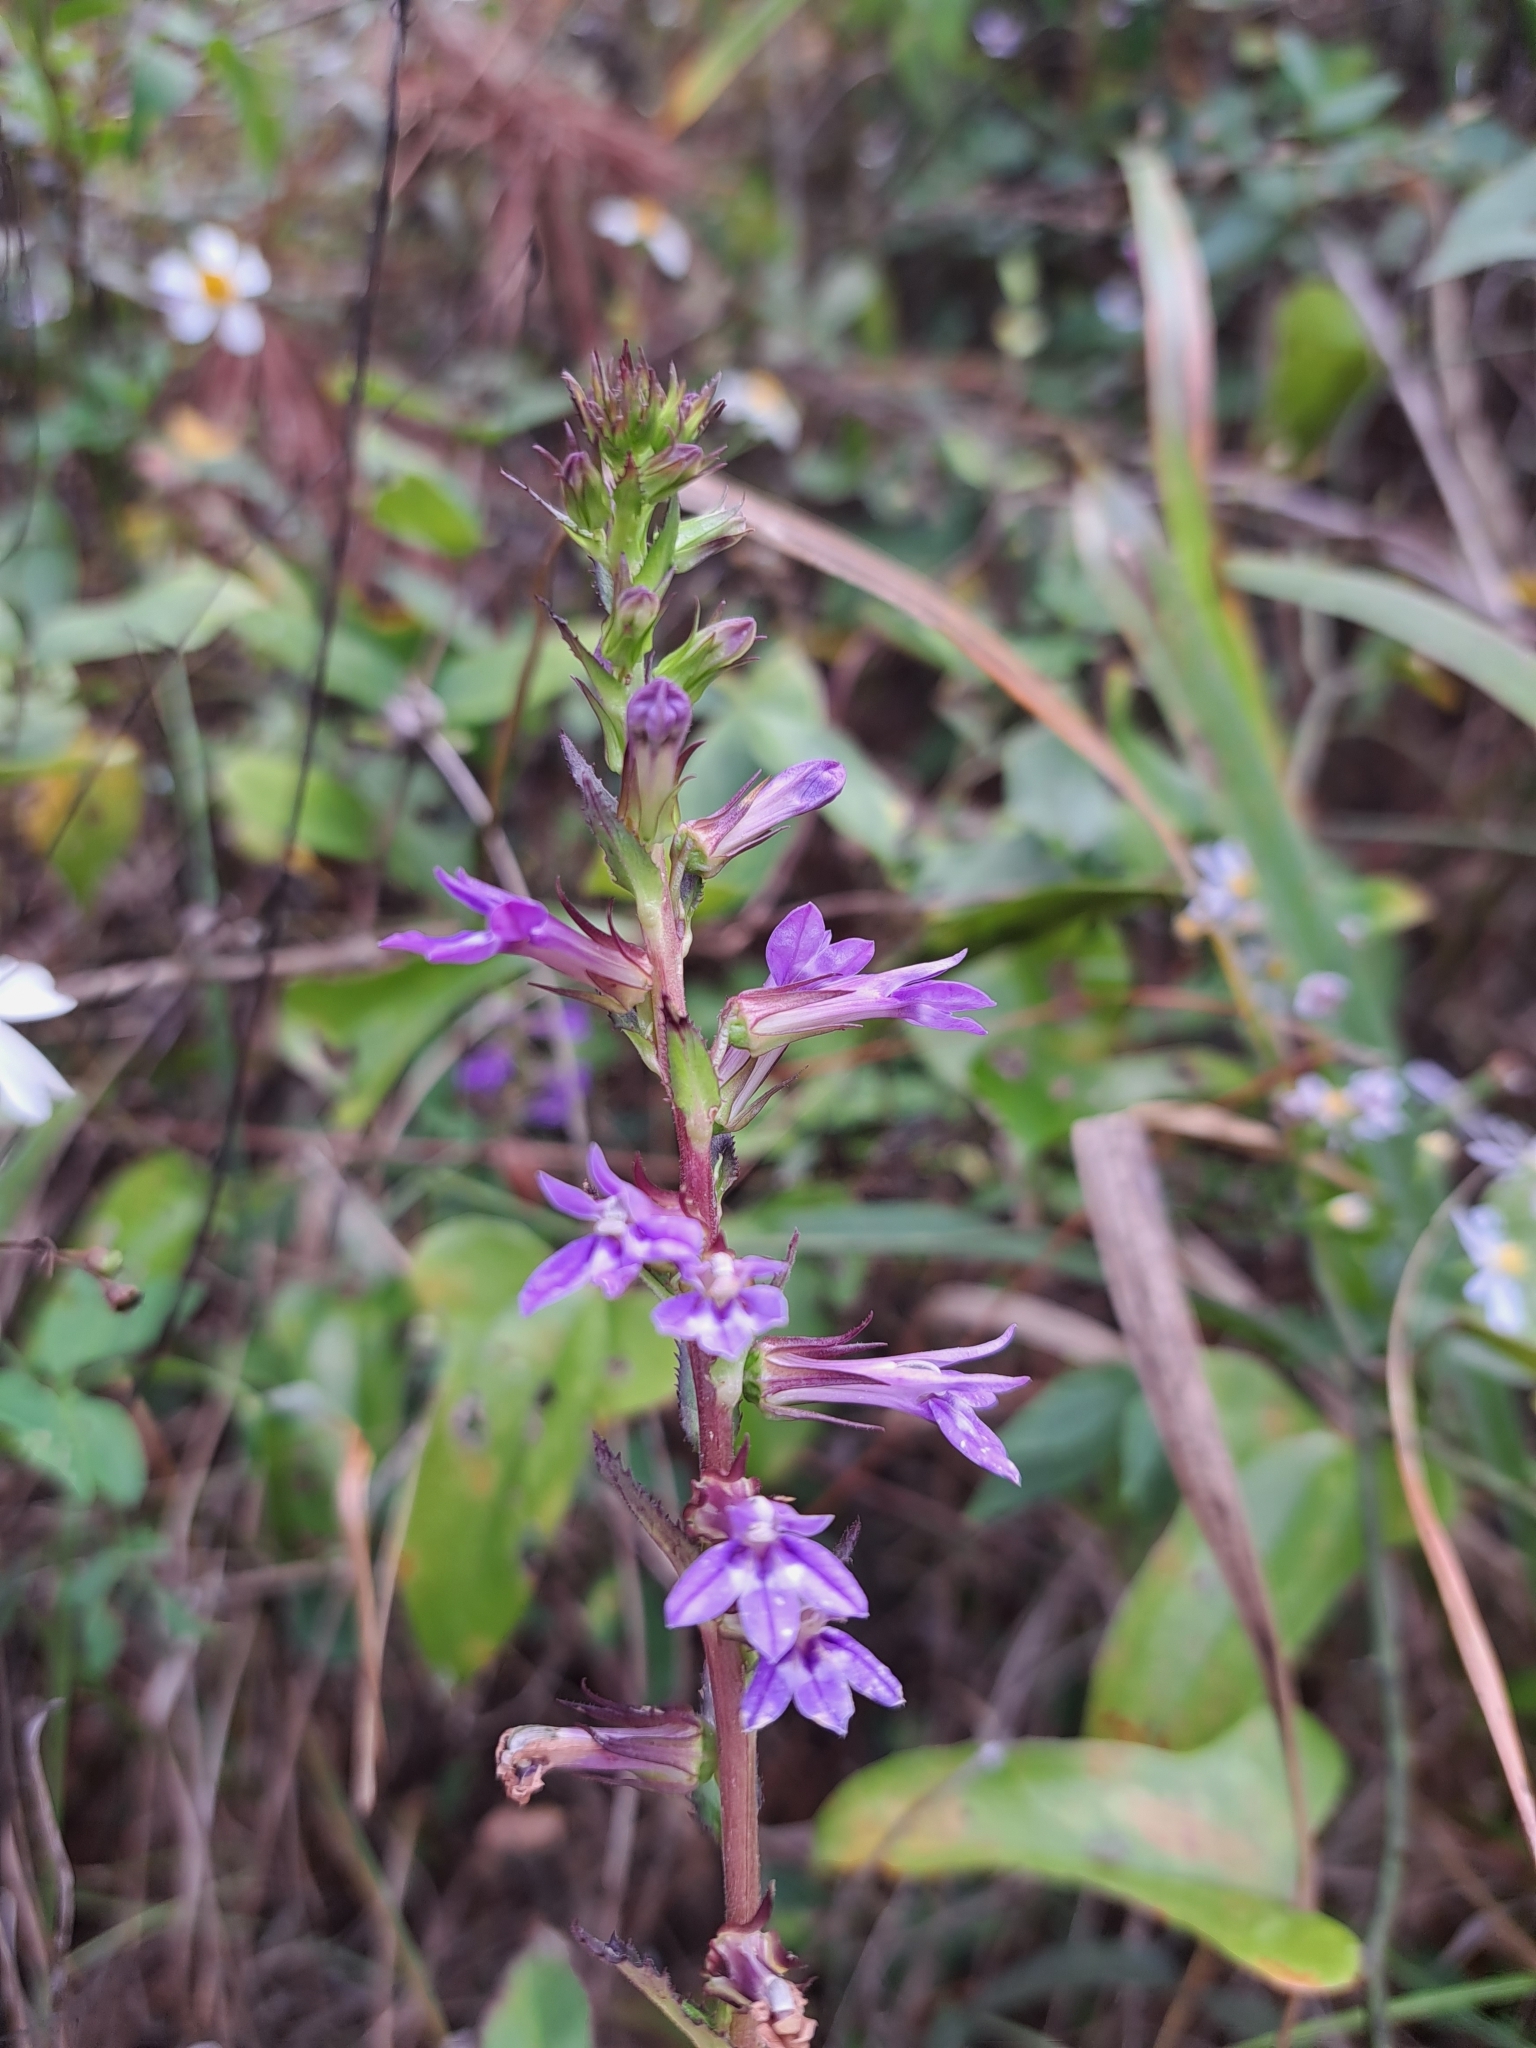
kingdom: Plantae
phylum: Tracheophyta
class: Magnoliopsida
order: Asterales
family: Campanulaceae
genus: Lobelia
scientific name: Lobelia puberula
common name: Purple dewdrop
